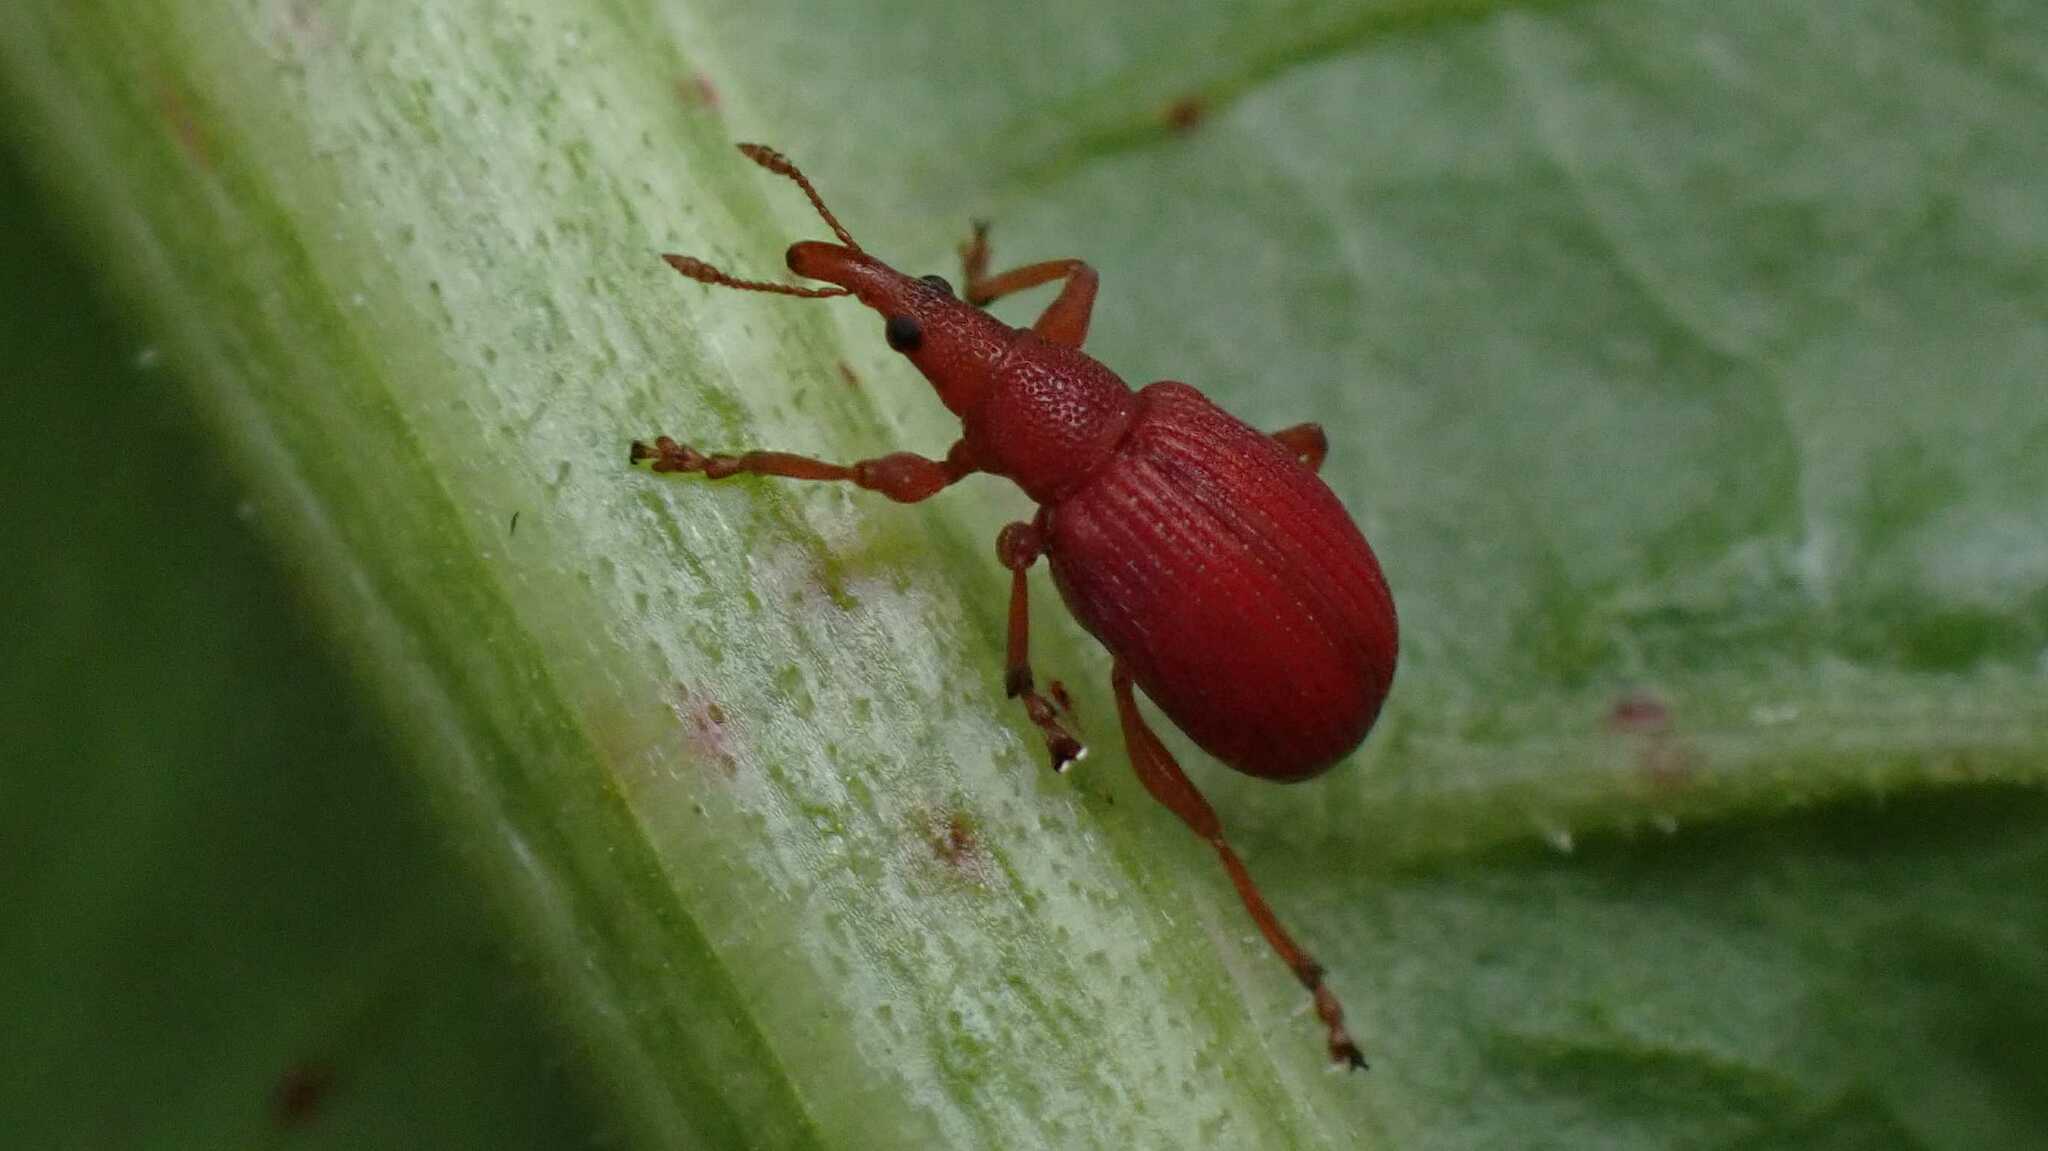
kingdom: Animalia
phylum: Arthropoda
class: Insecta
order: Coleoptera
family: Apionidae
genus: Apion
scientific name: Apion frumentarium
